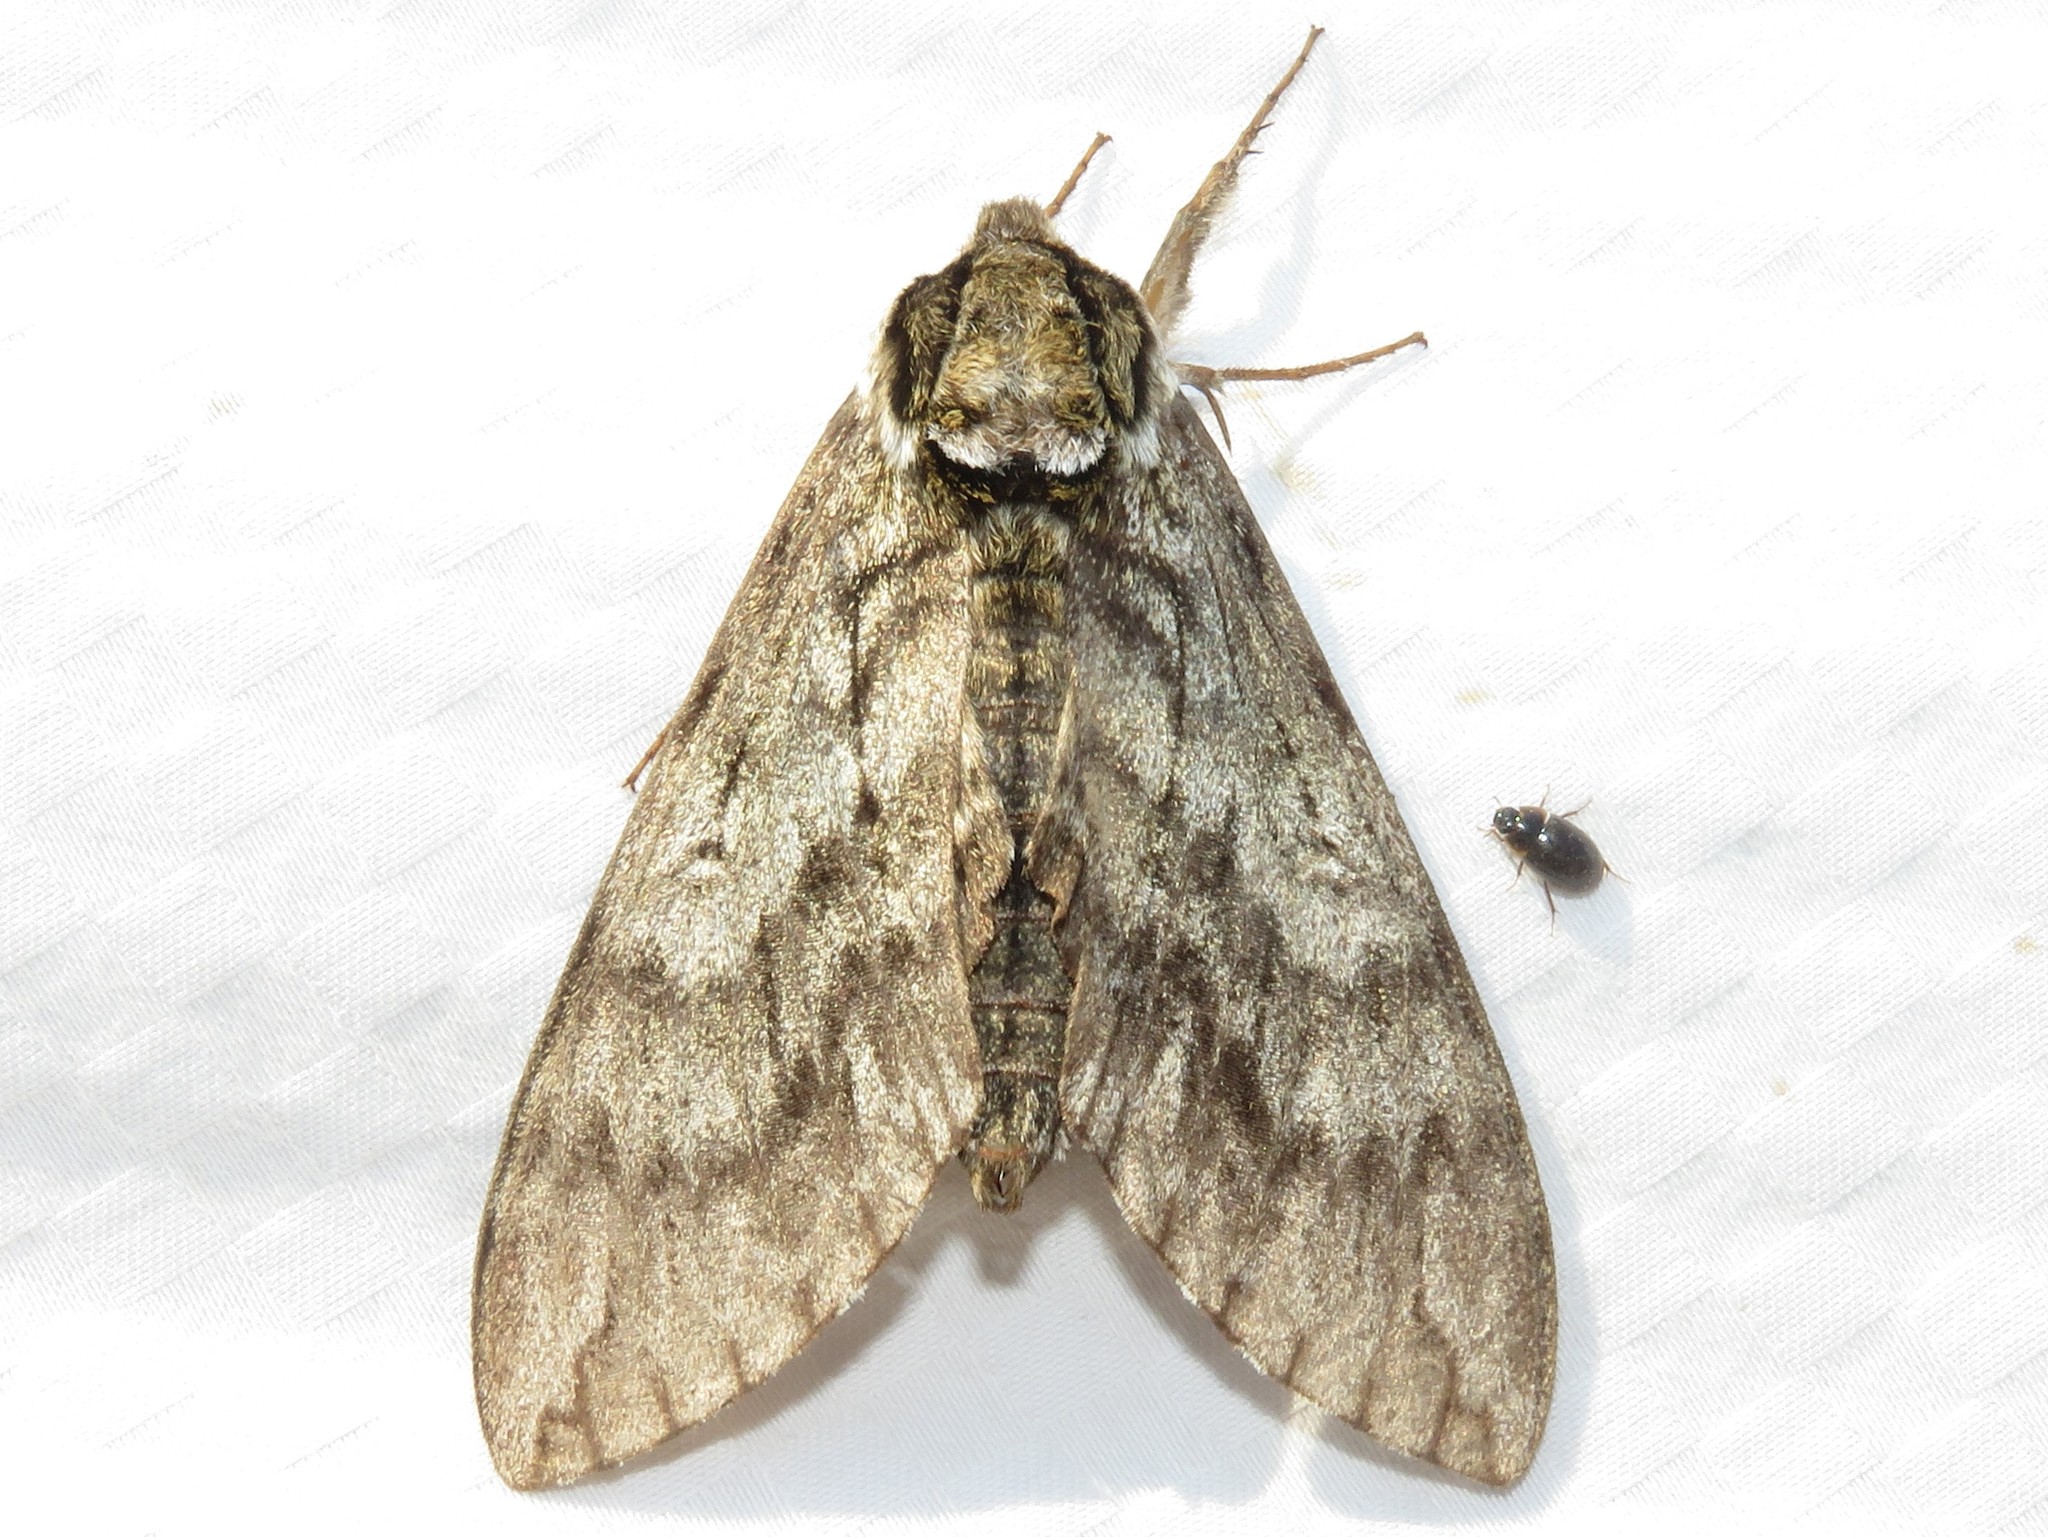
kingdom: Animalia
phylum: Arthropoda
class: Insecta
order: Lepidoptera
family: Sphingidae
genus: Ceratomia
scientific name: Ceratomia undulosa
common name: Waved sphinx
